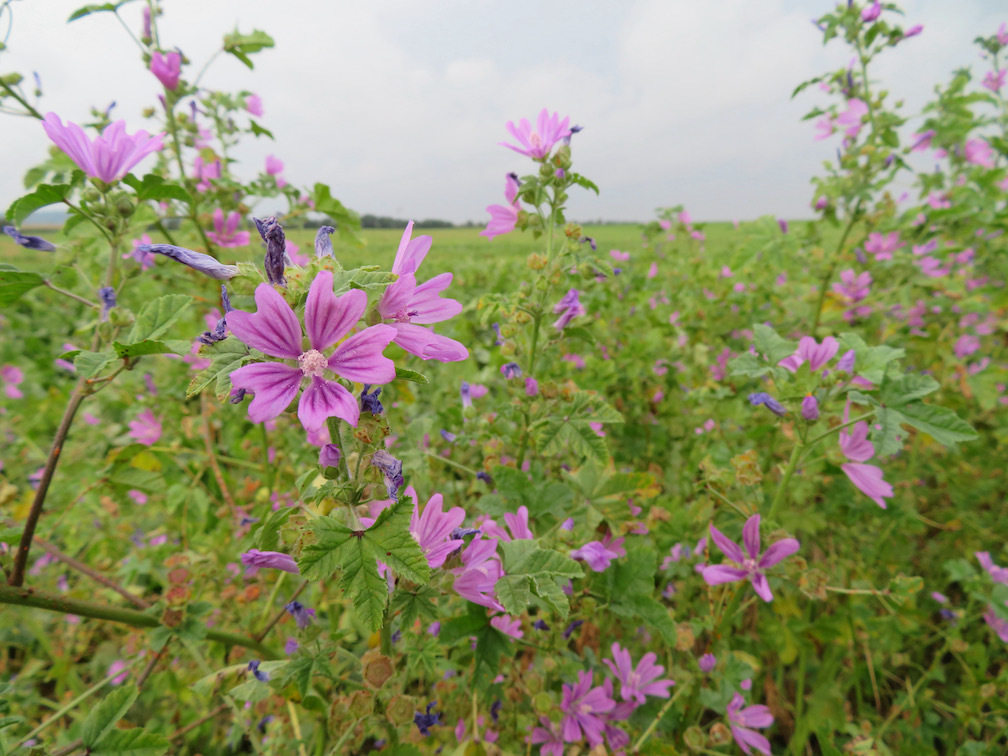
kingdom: Plantae
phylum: Tracheophyta
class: Magnoliopsida
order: Malvales
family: Malvaceae
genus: Malva
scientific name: Malva sylvestris
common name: Common mallow
